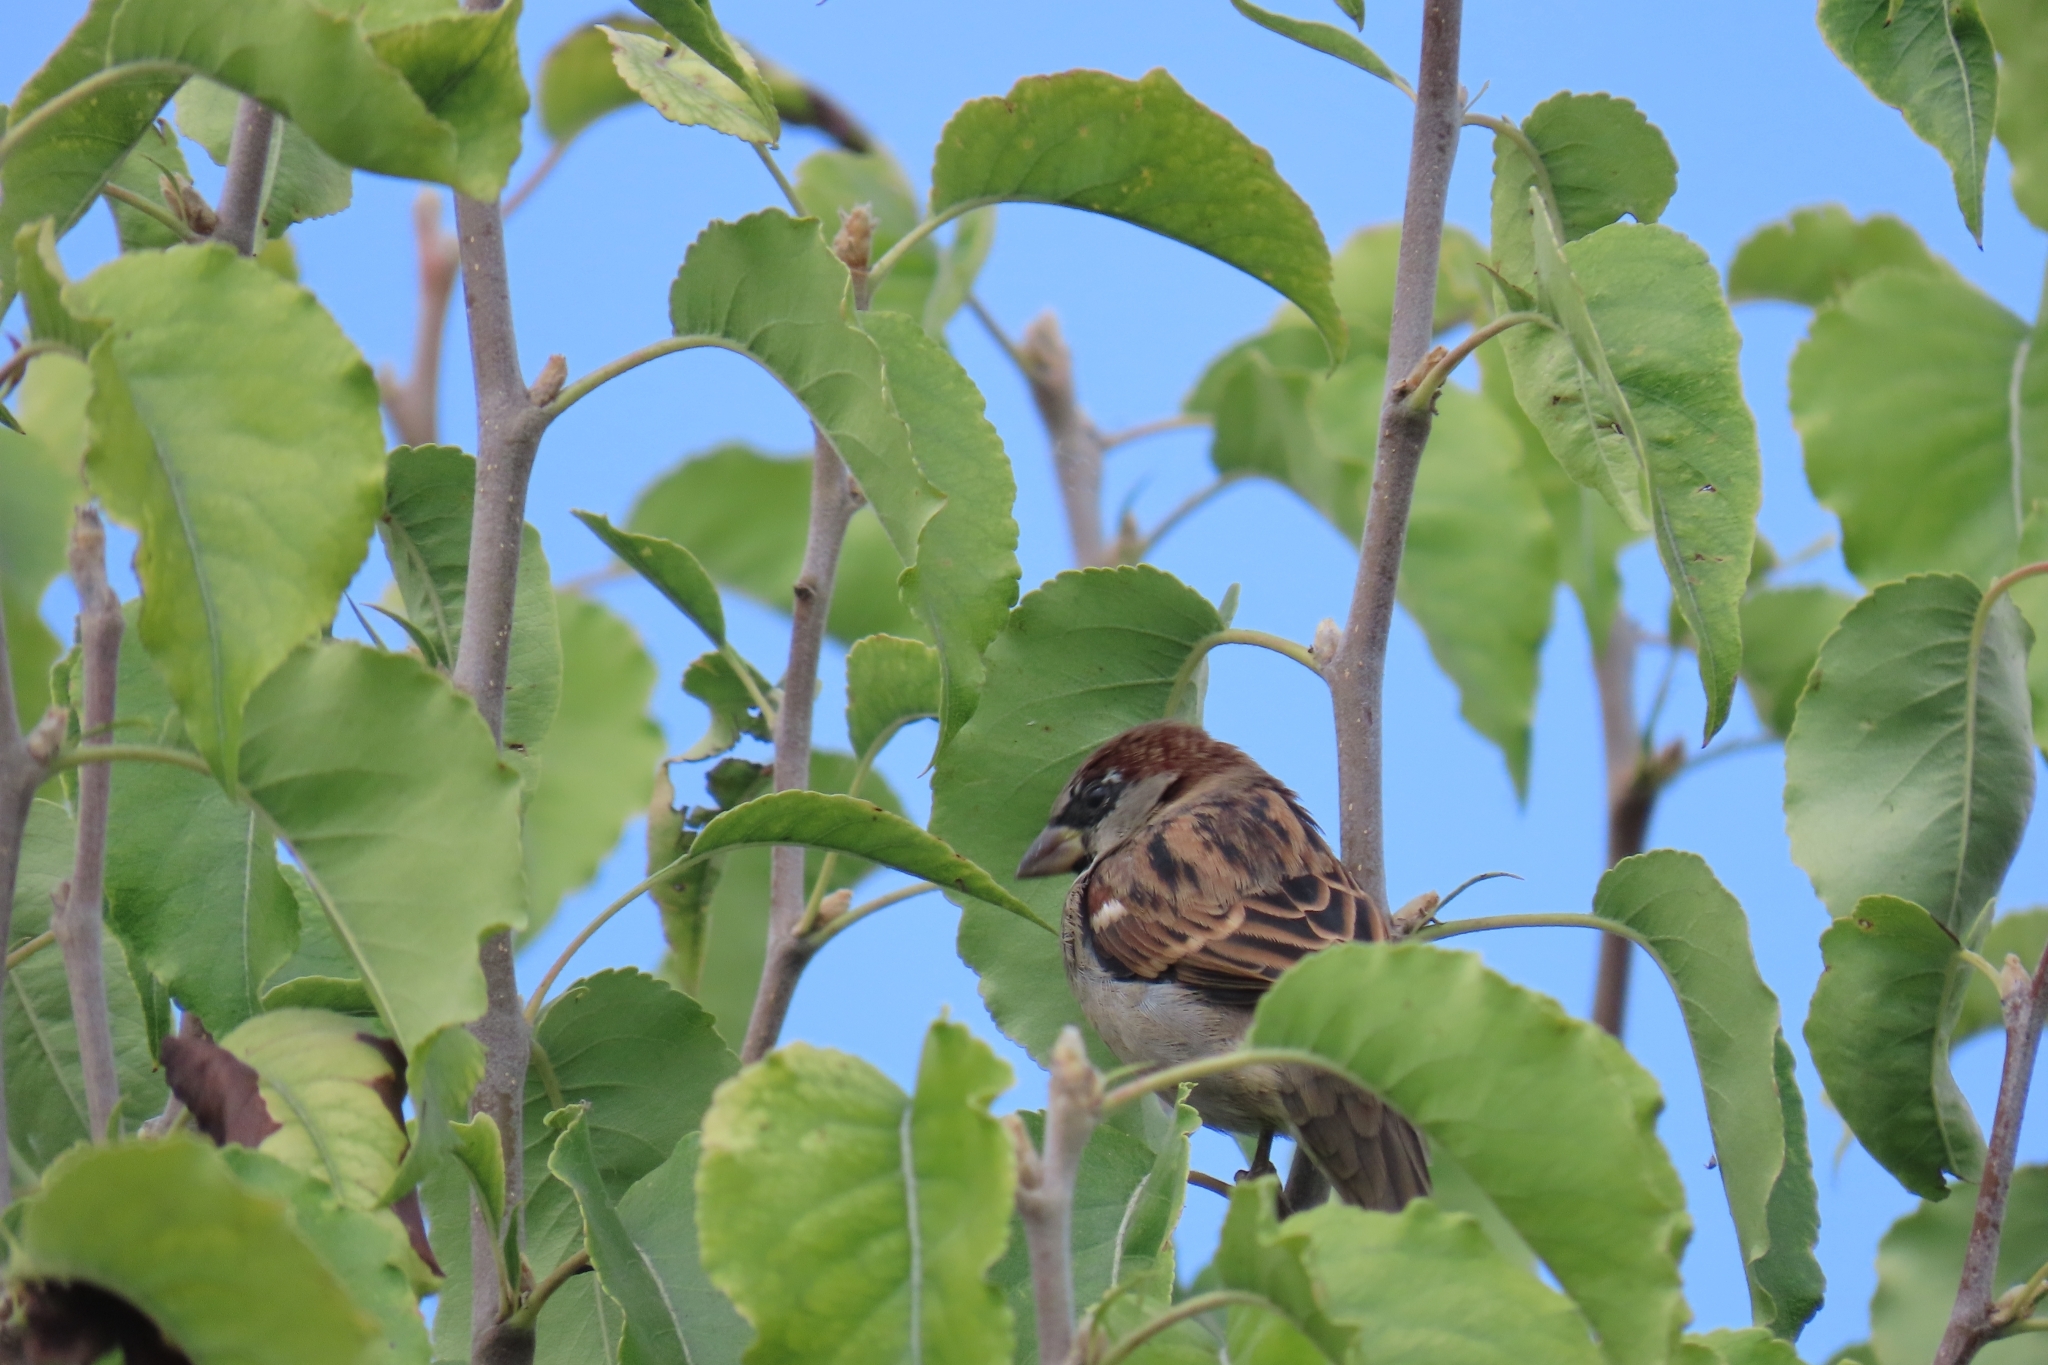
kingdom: Animalia
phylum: Chordata
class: Aves
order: Passeriformes
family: Passeridae
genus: Passer
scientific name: Passer domesticus
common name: House sparrow
